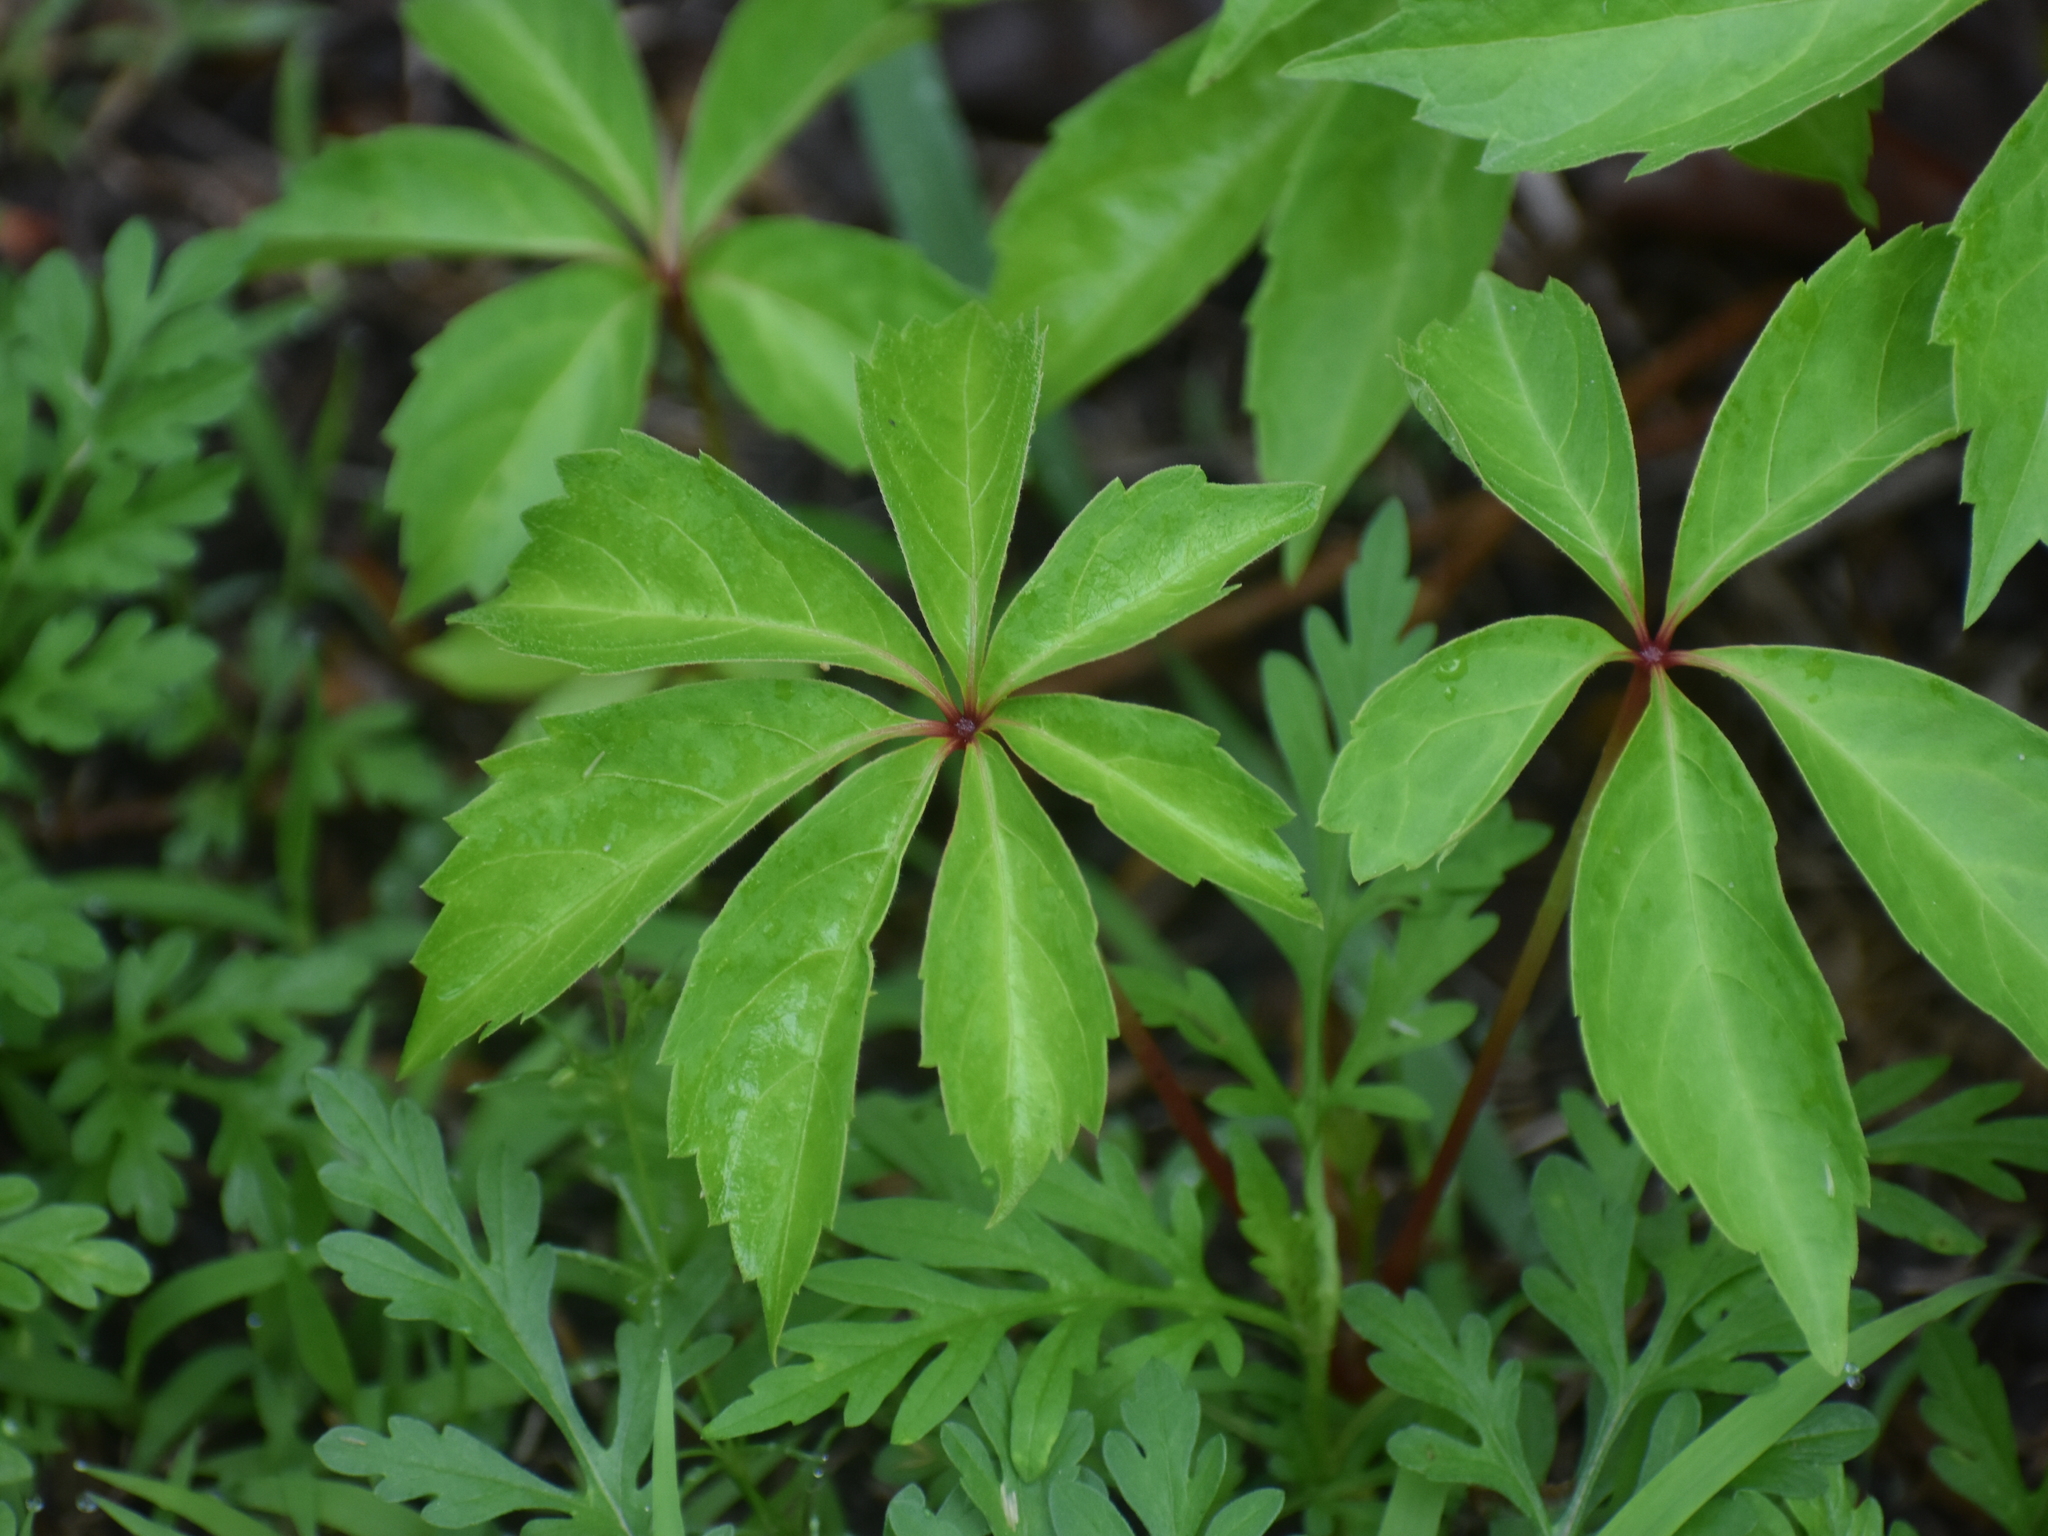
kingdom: Plantae
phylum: Tracheophyta
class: Magnoliopsida
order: Vitales
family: Vitaceae
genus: Parthenocissus
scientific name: Parthenocissus quinquefolia
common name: Virginia-creeper
